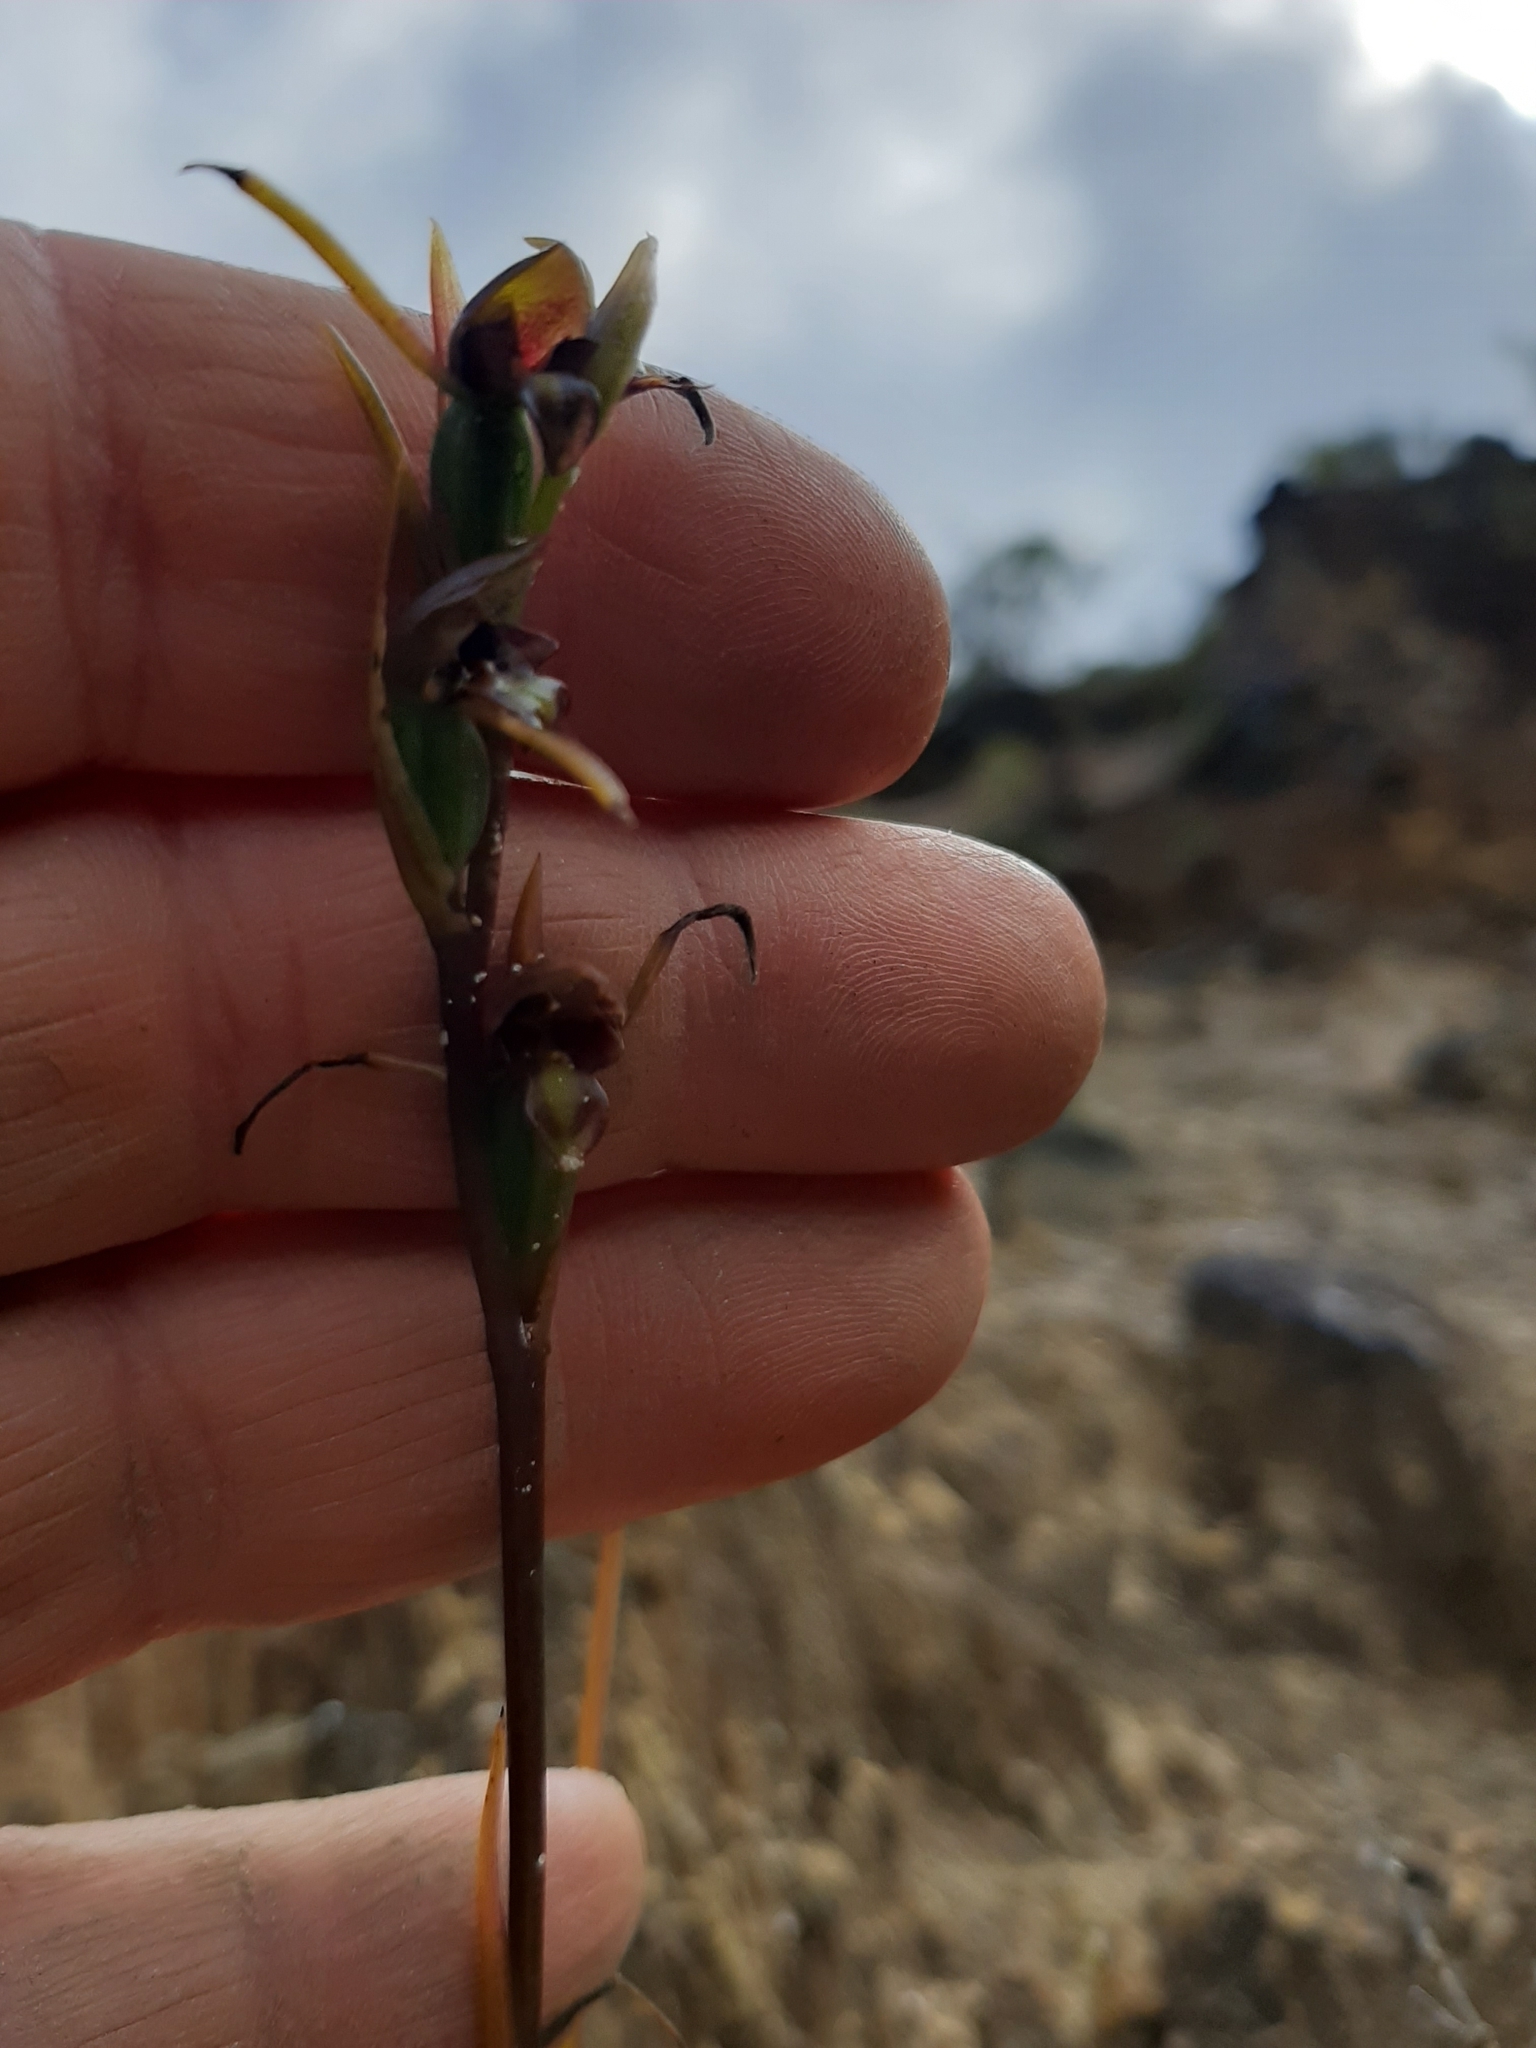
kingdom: Plantae
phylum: Tracheophyta
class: Liliopsida
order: Asparagales
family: Orchidaceae
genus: Orthoceras
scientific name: Orthoceras novae-zeelandiae
